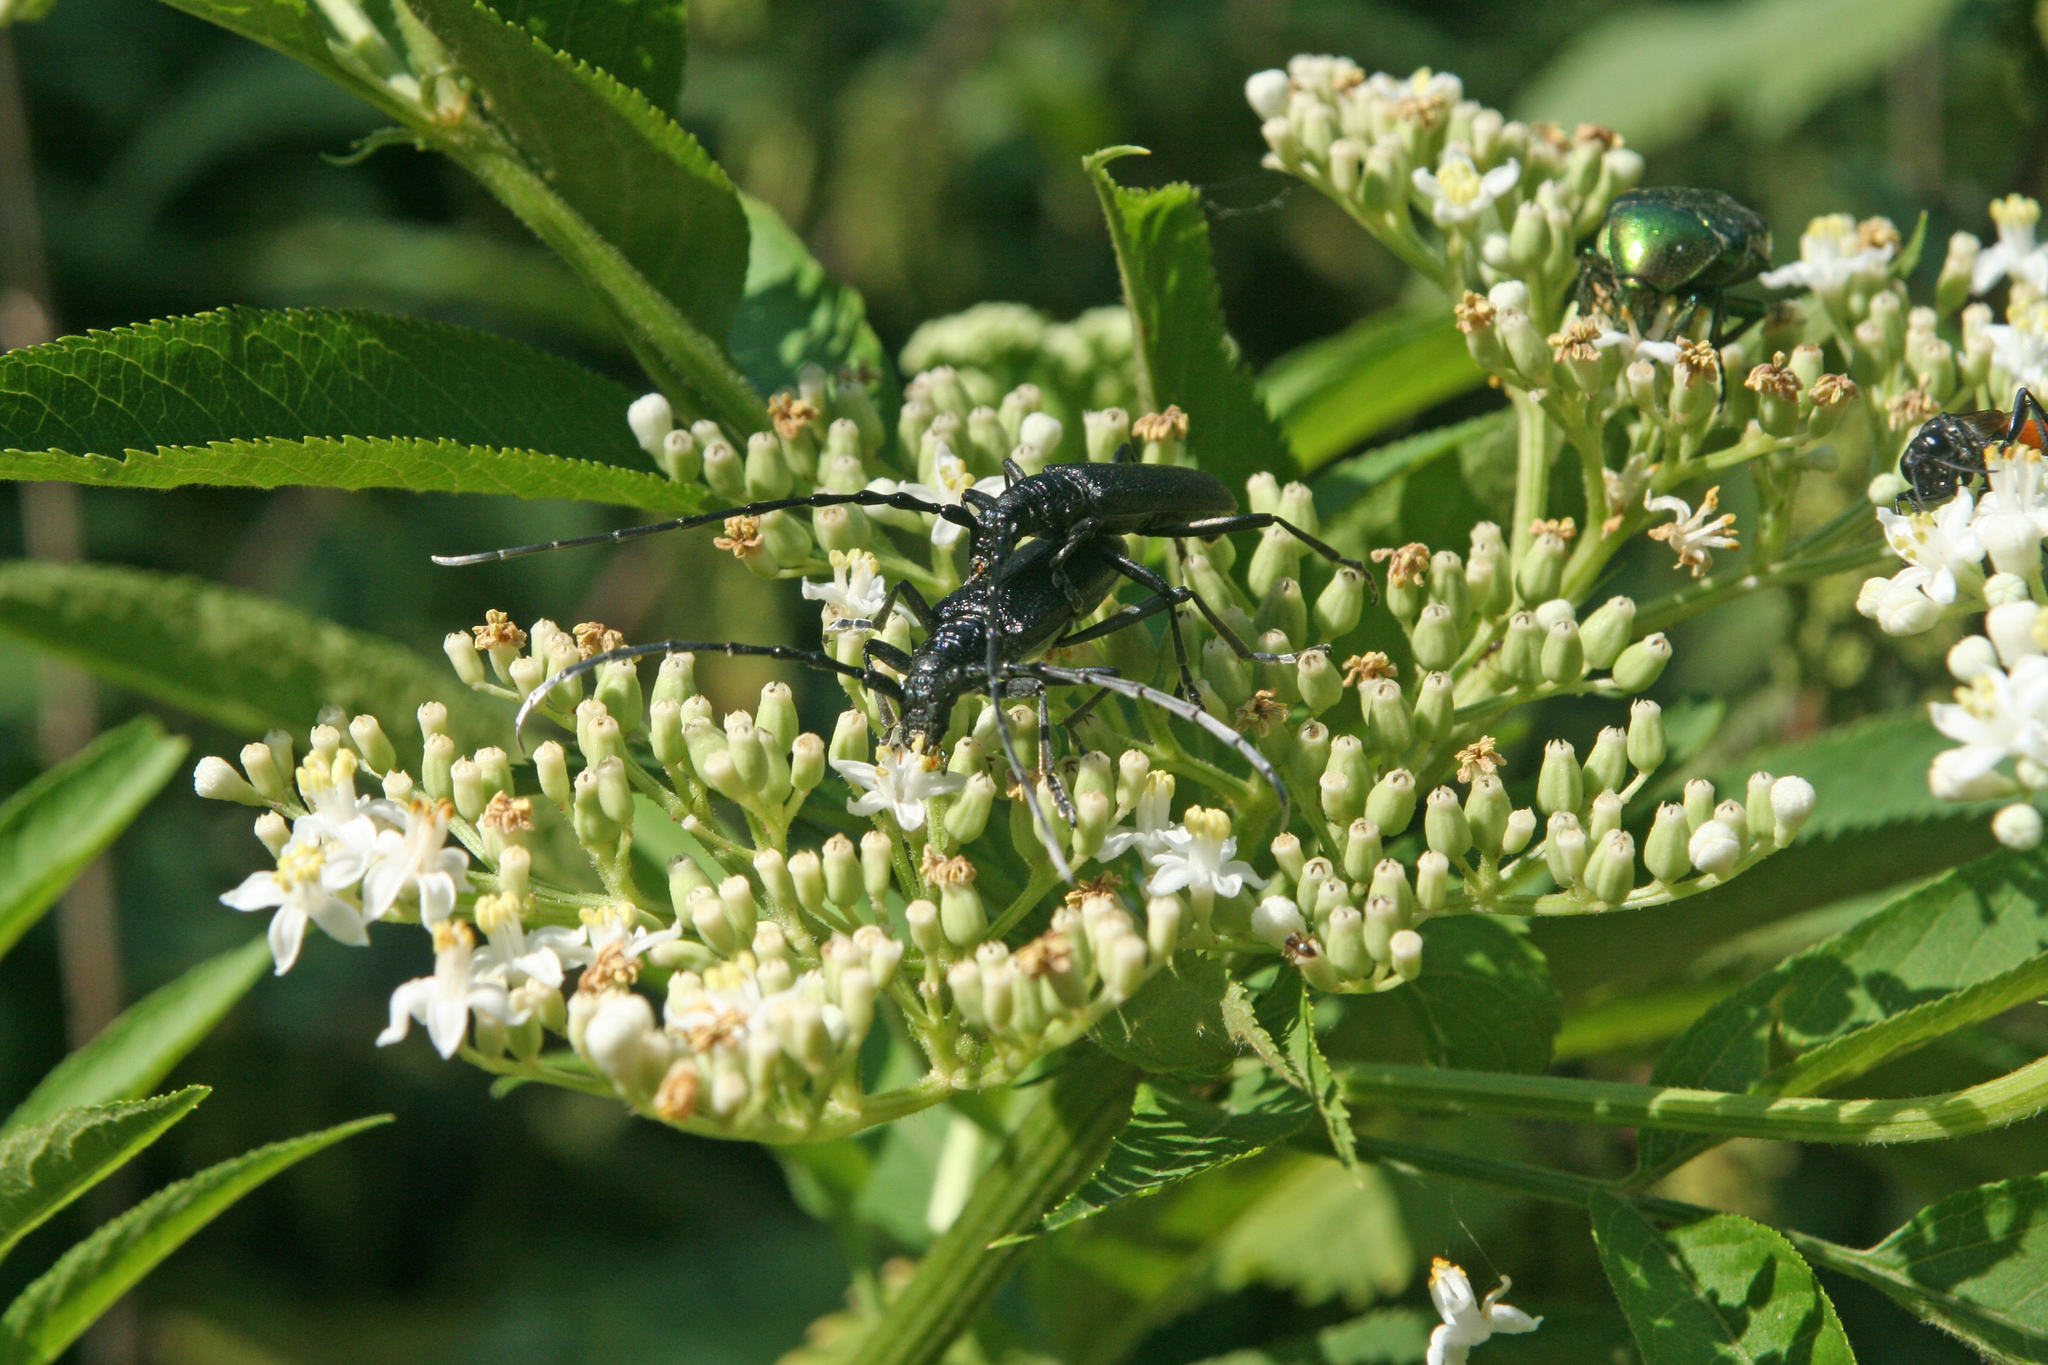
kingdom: Plantae
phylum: Tracheophyta
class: Magnoliopsida
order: Dipsacales
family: Viburnaceae
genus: Sambucus
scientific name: Sambucus ebulus
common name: Dwarf elder
